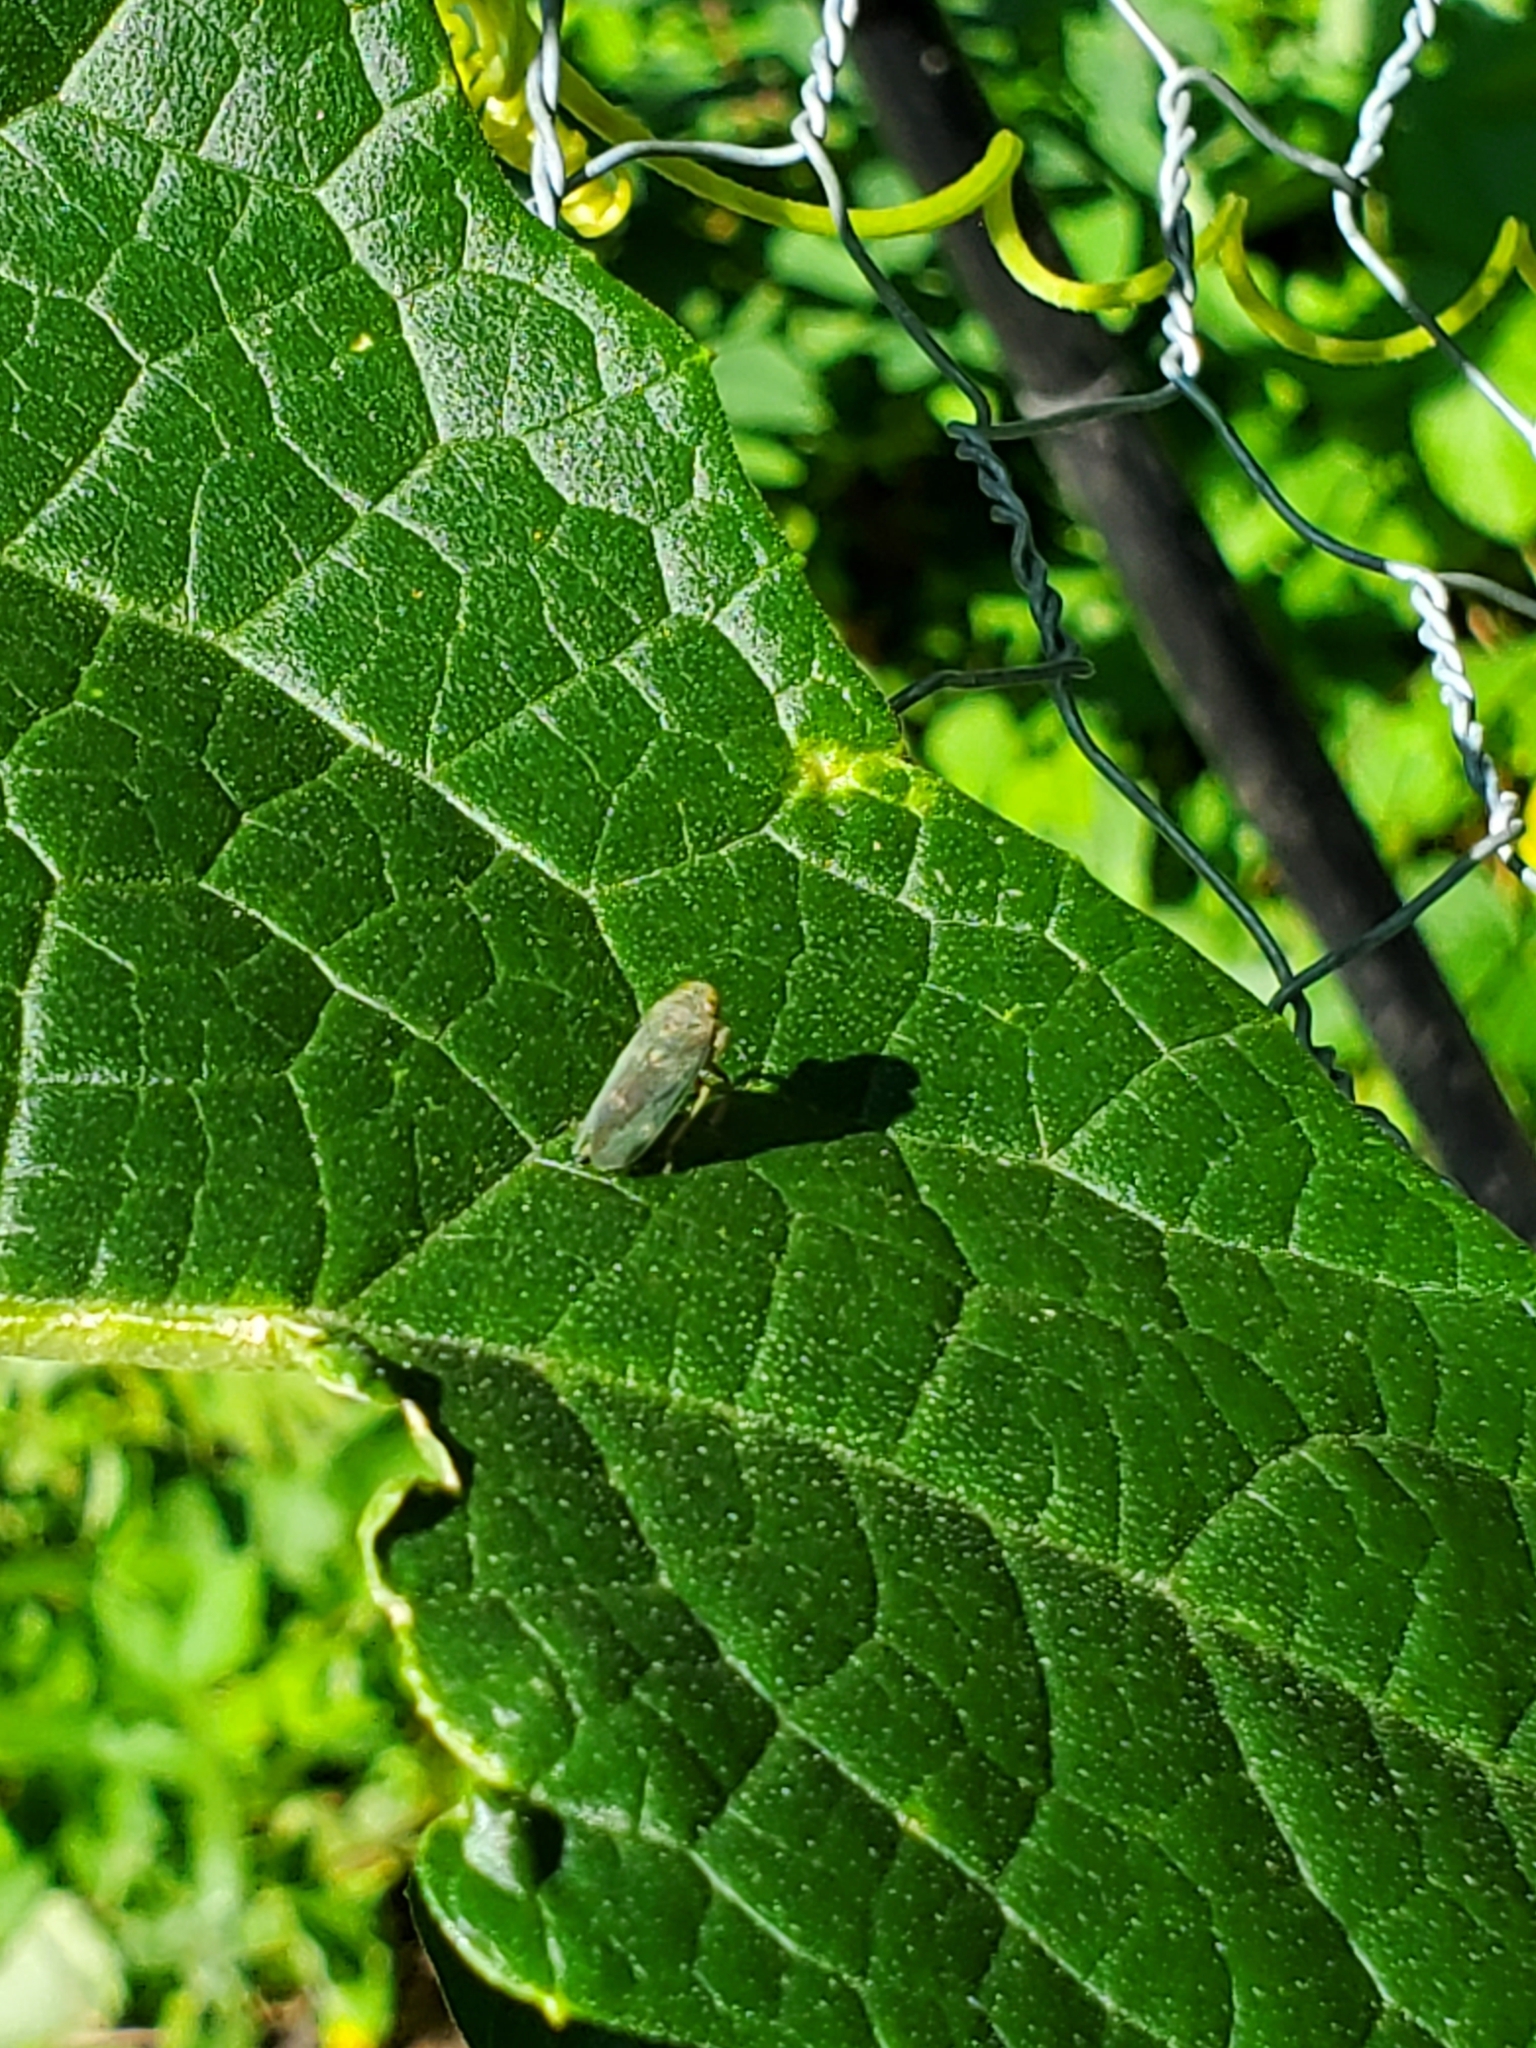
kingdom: Animalia
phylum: Arthropoda
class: Insecta
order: Hemiptera
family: Cicadellidae
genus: Jikradia
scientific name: Jikradia olitoria
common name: Coppery leafhopper
